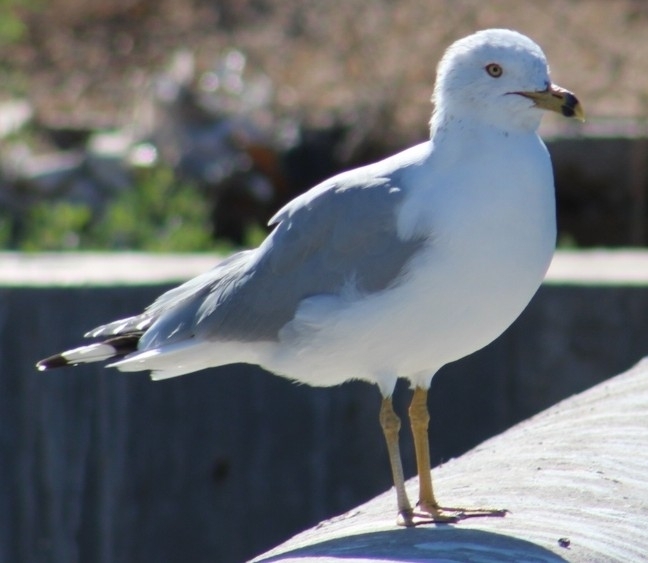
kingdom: Animalia
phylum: Chordata
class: Aves
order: Charadriiformes
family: Laridae
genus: Larus
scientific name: Larus delawarensis
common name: Ring-billed gull
